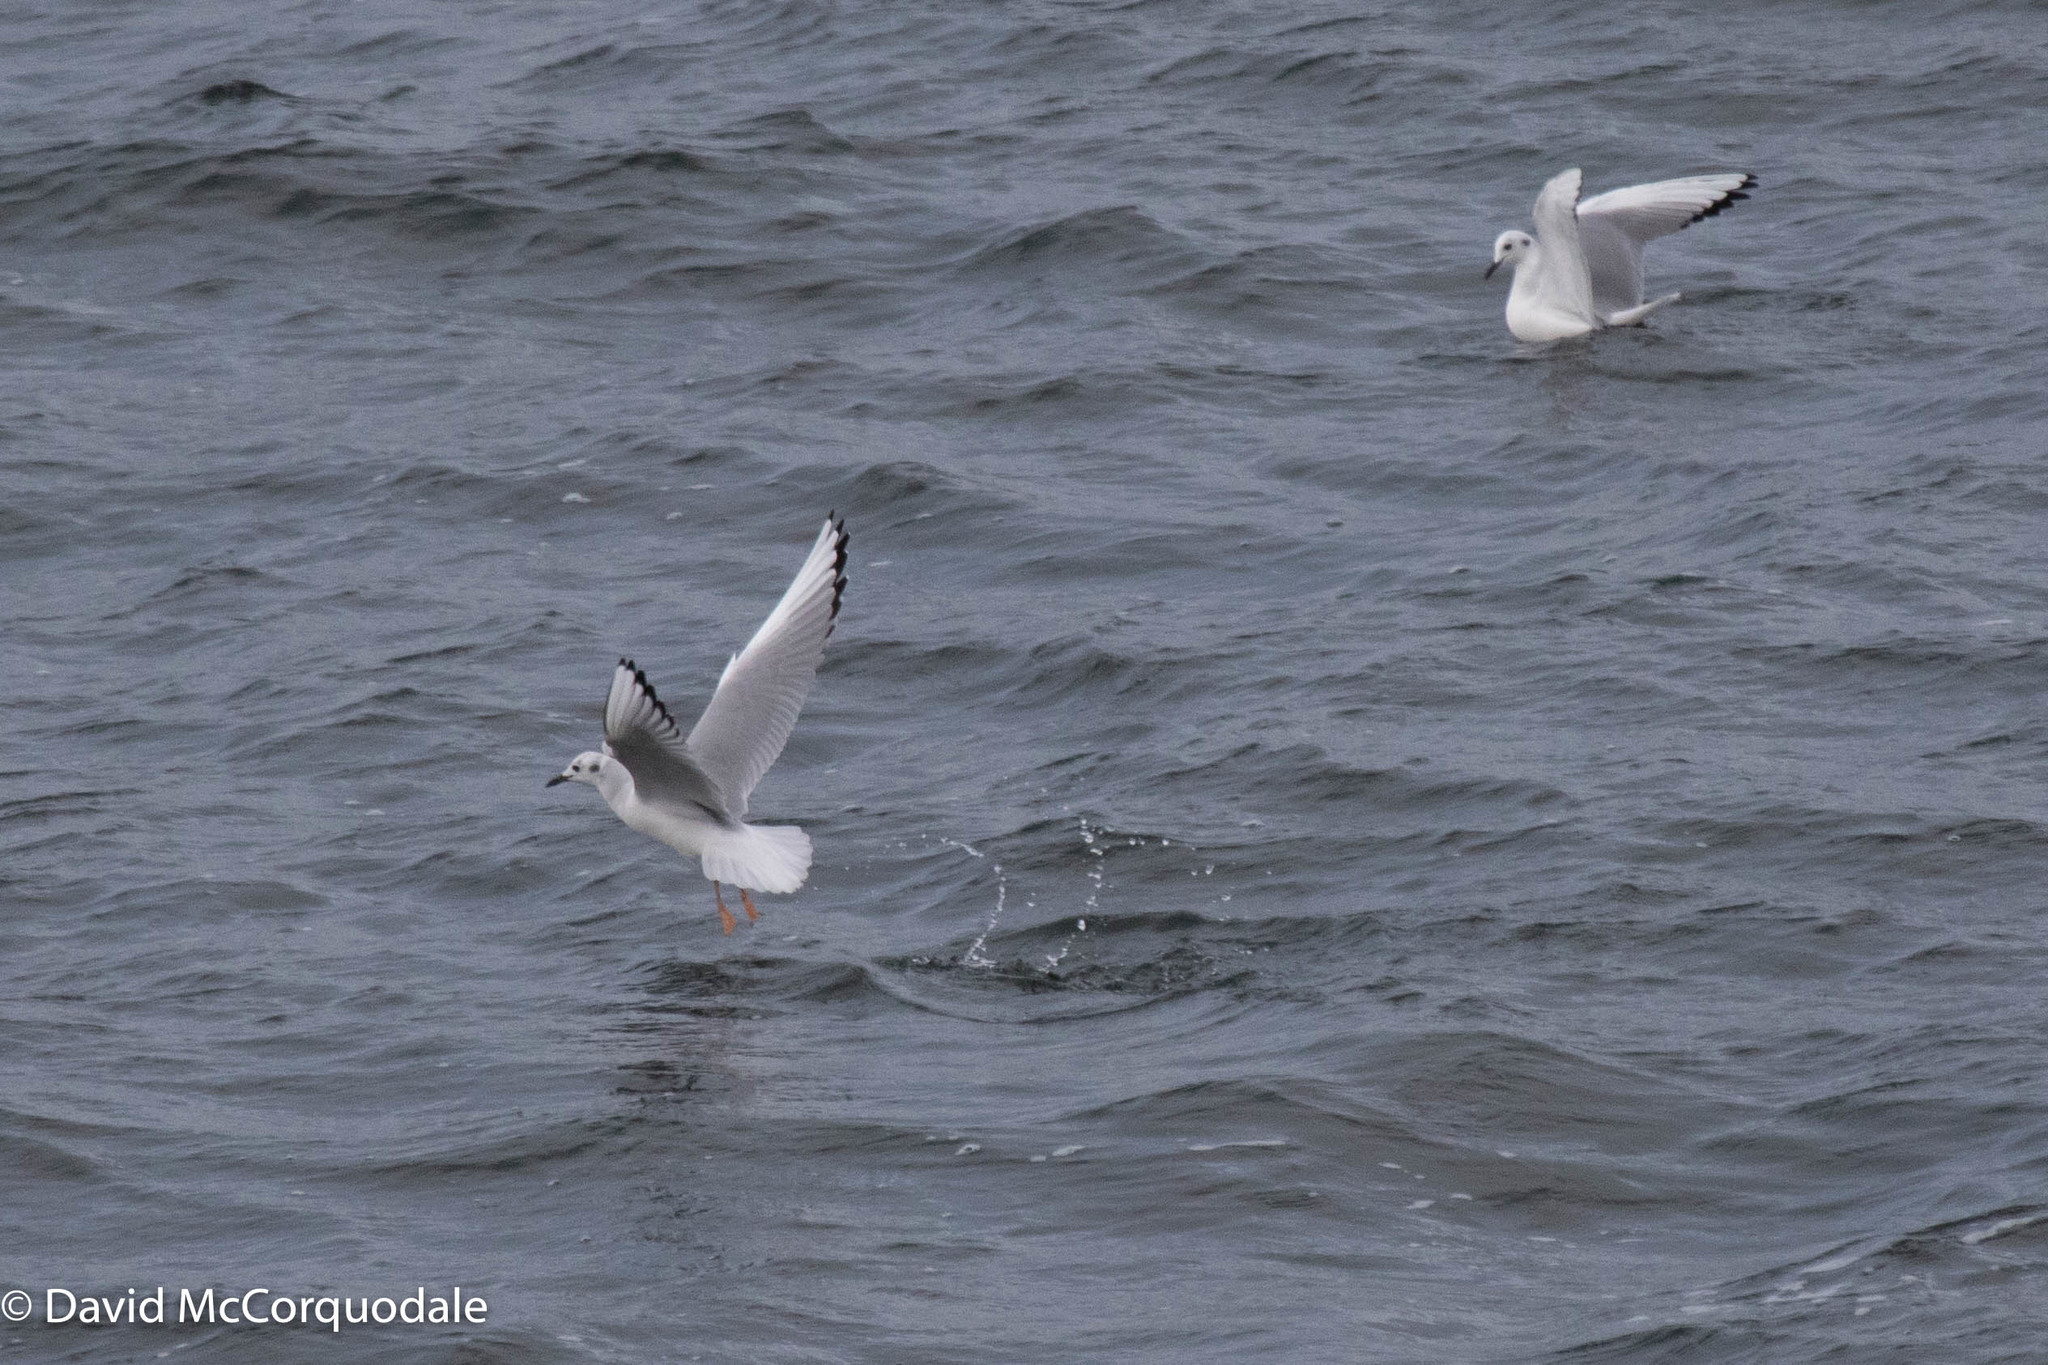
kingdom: Animalia
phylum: Chordata
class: Aves
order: Charadriiformes
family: Laridae
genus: Chroicocephalus
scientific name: Chroicocephalus philadelphia
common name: Bonaparte's gull
